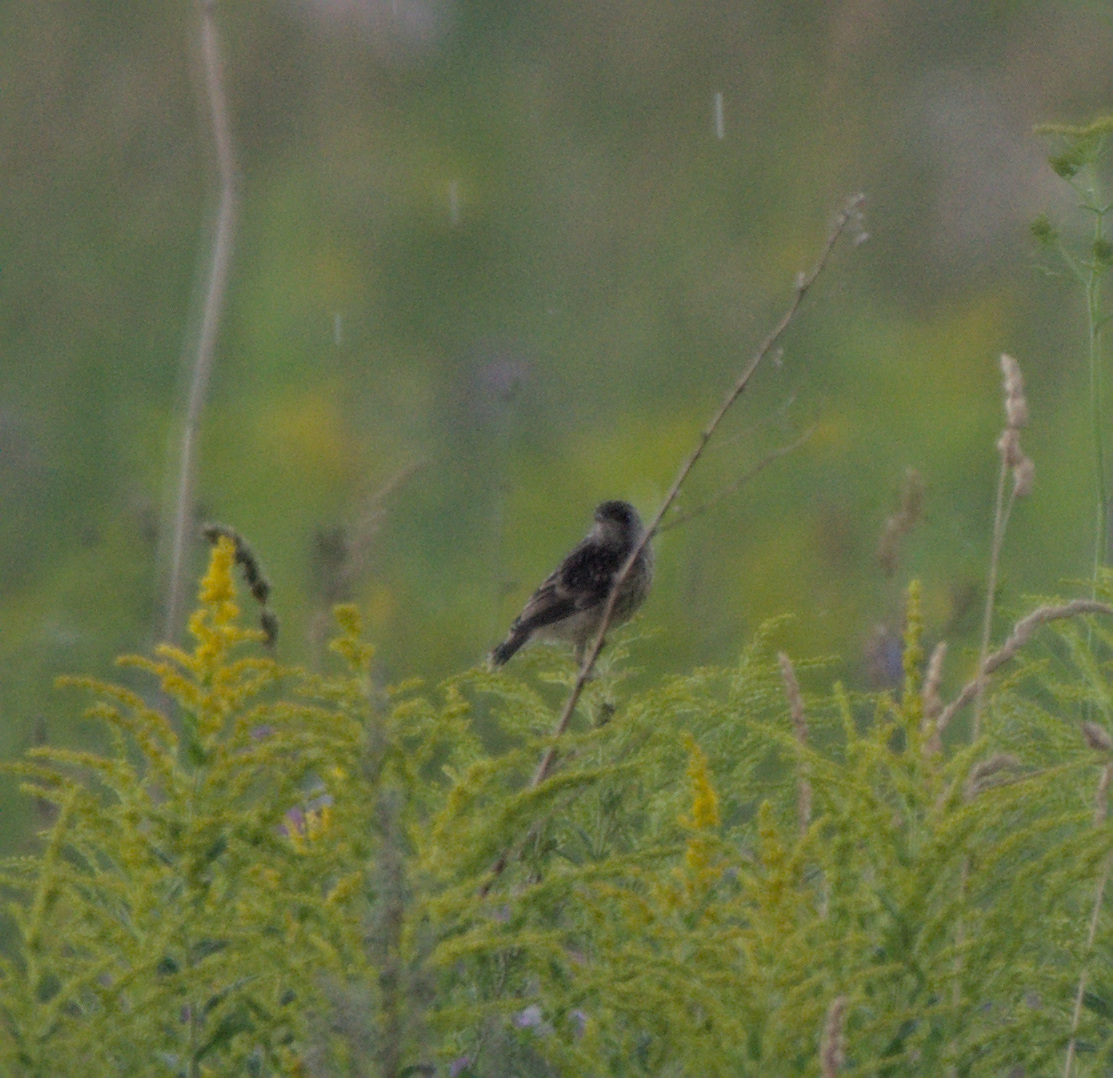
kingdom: Animalia
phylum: Chordata
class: Aves
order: Passeriformes
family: Muscicapidae
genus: Saxicola
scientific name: Saxicola maurus
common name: Siberian stonechat
